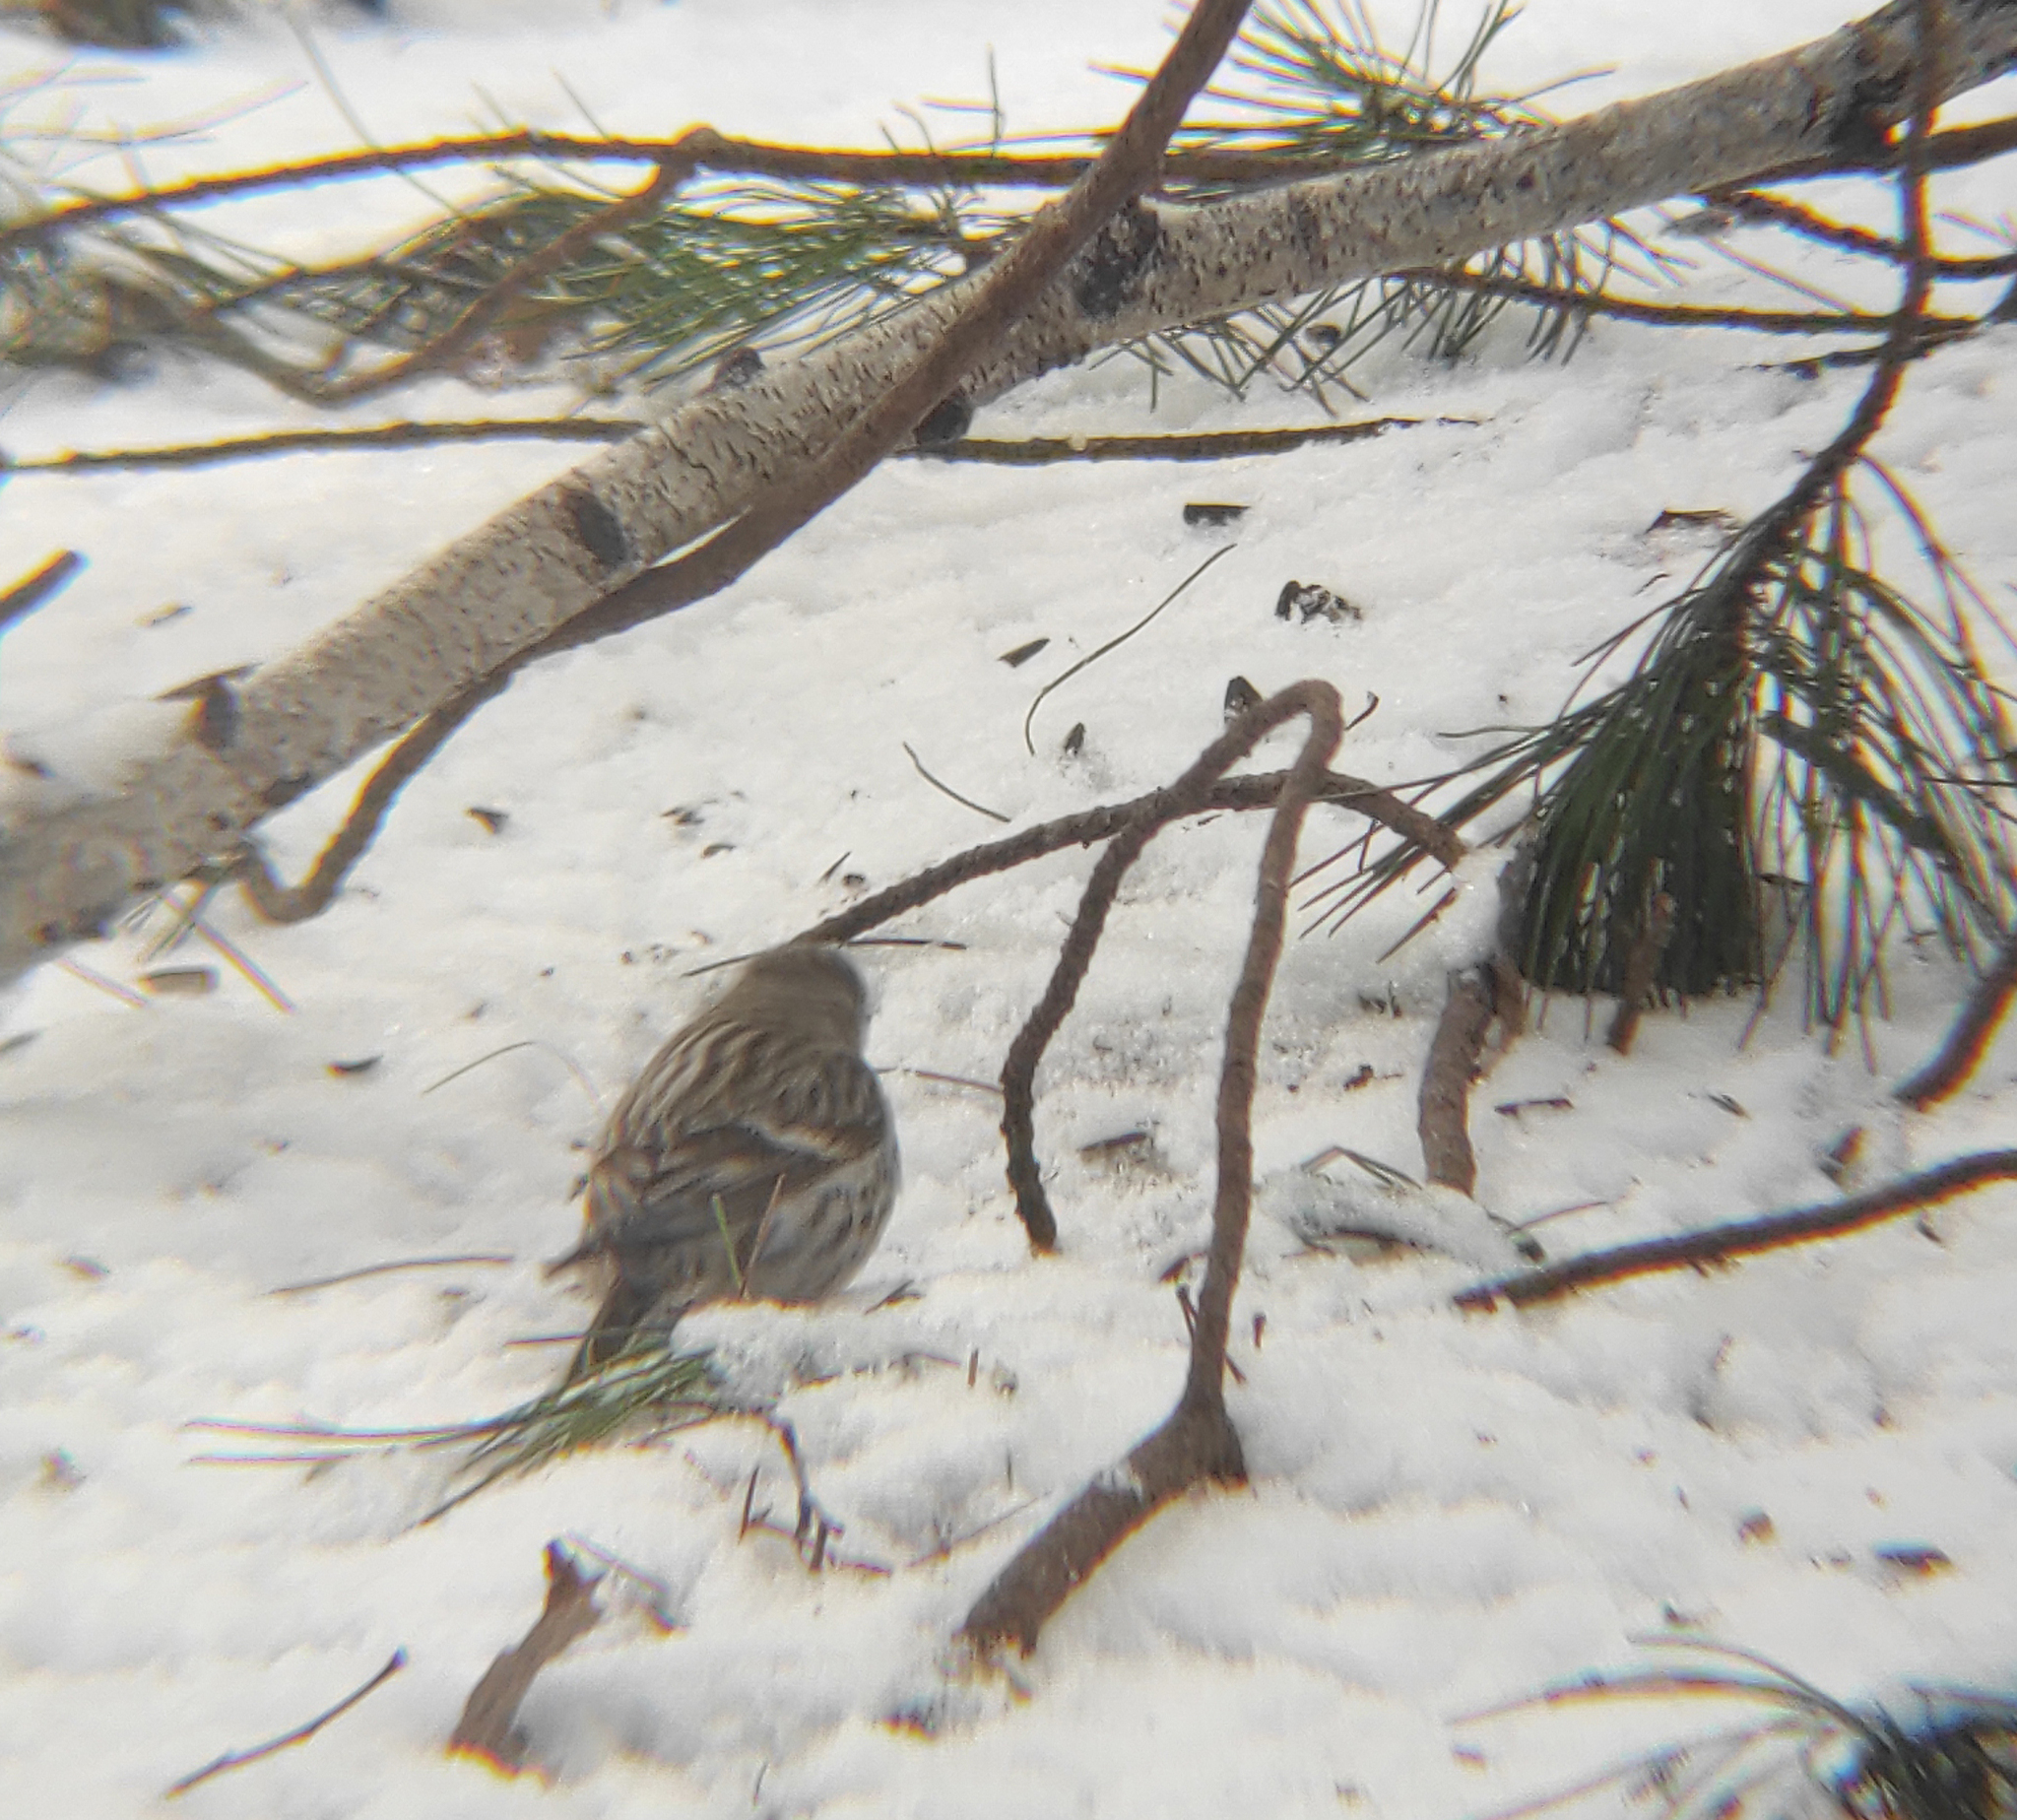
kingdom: Animalia
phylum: Chordata
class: Aves
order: Passeriformes
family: Fringillidae
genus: Acanthis
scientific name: Acanthis flammea
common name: Common redpoll
